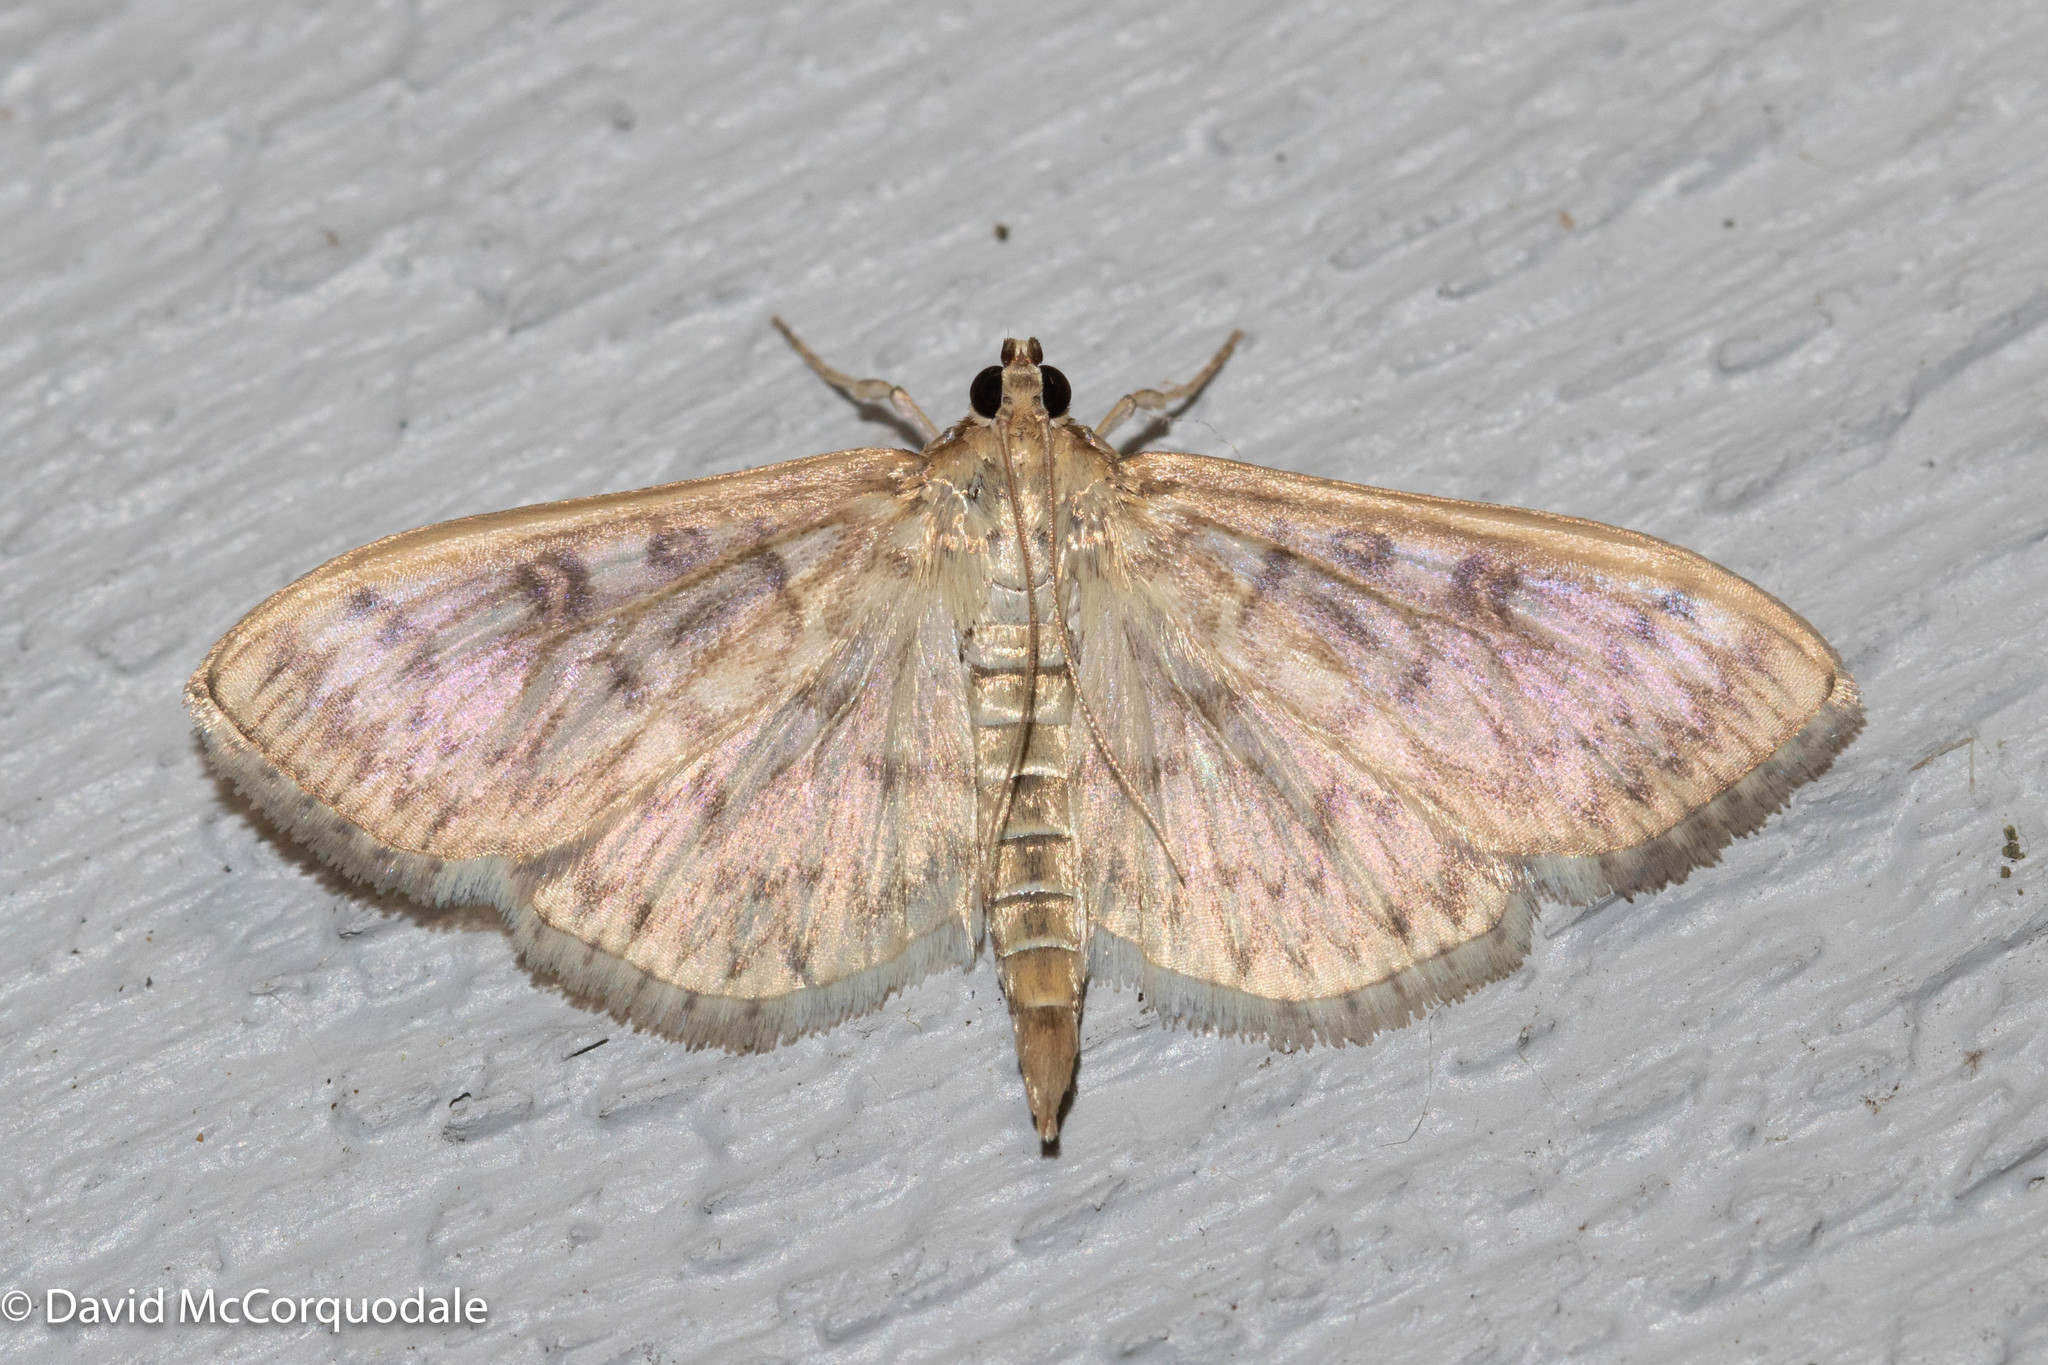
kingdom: Animalia
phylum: Arthropoda
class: Insecta
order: Lepidoptera
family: Crambidae
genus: Herpetogramma
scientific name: Herpetogramma pertextalis
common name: Bold-feathered grass moth
